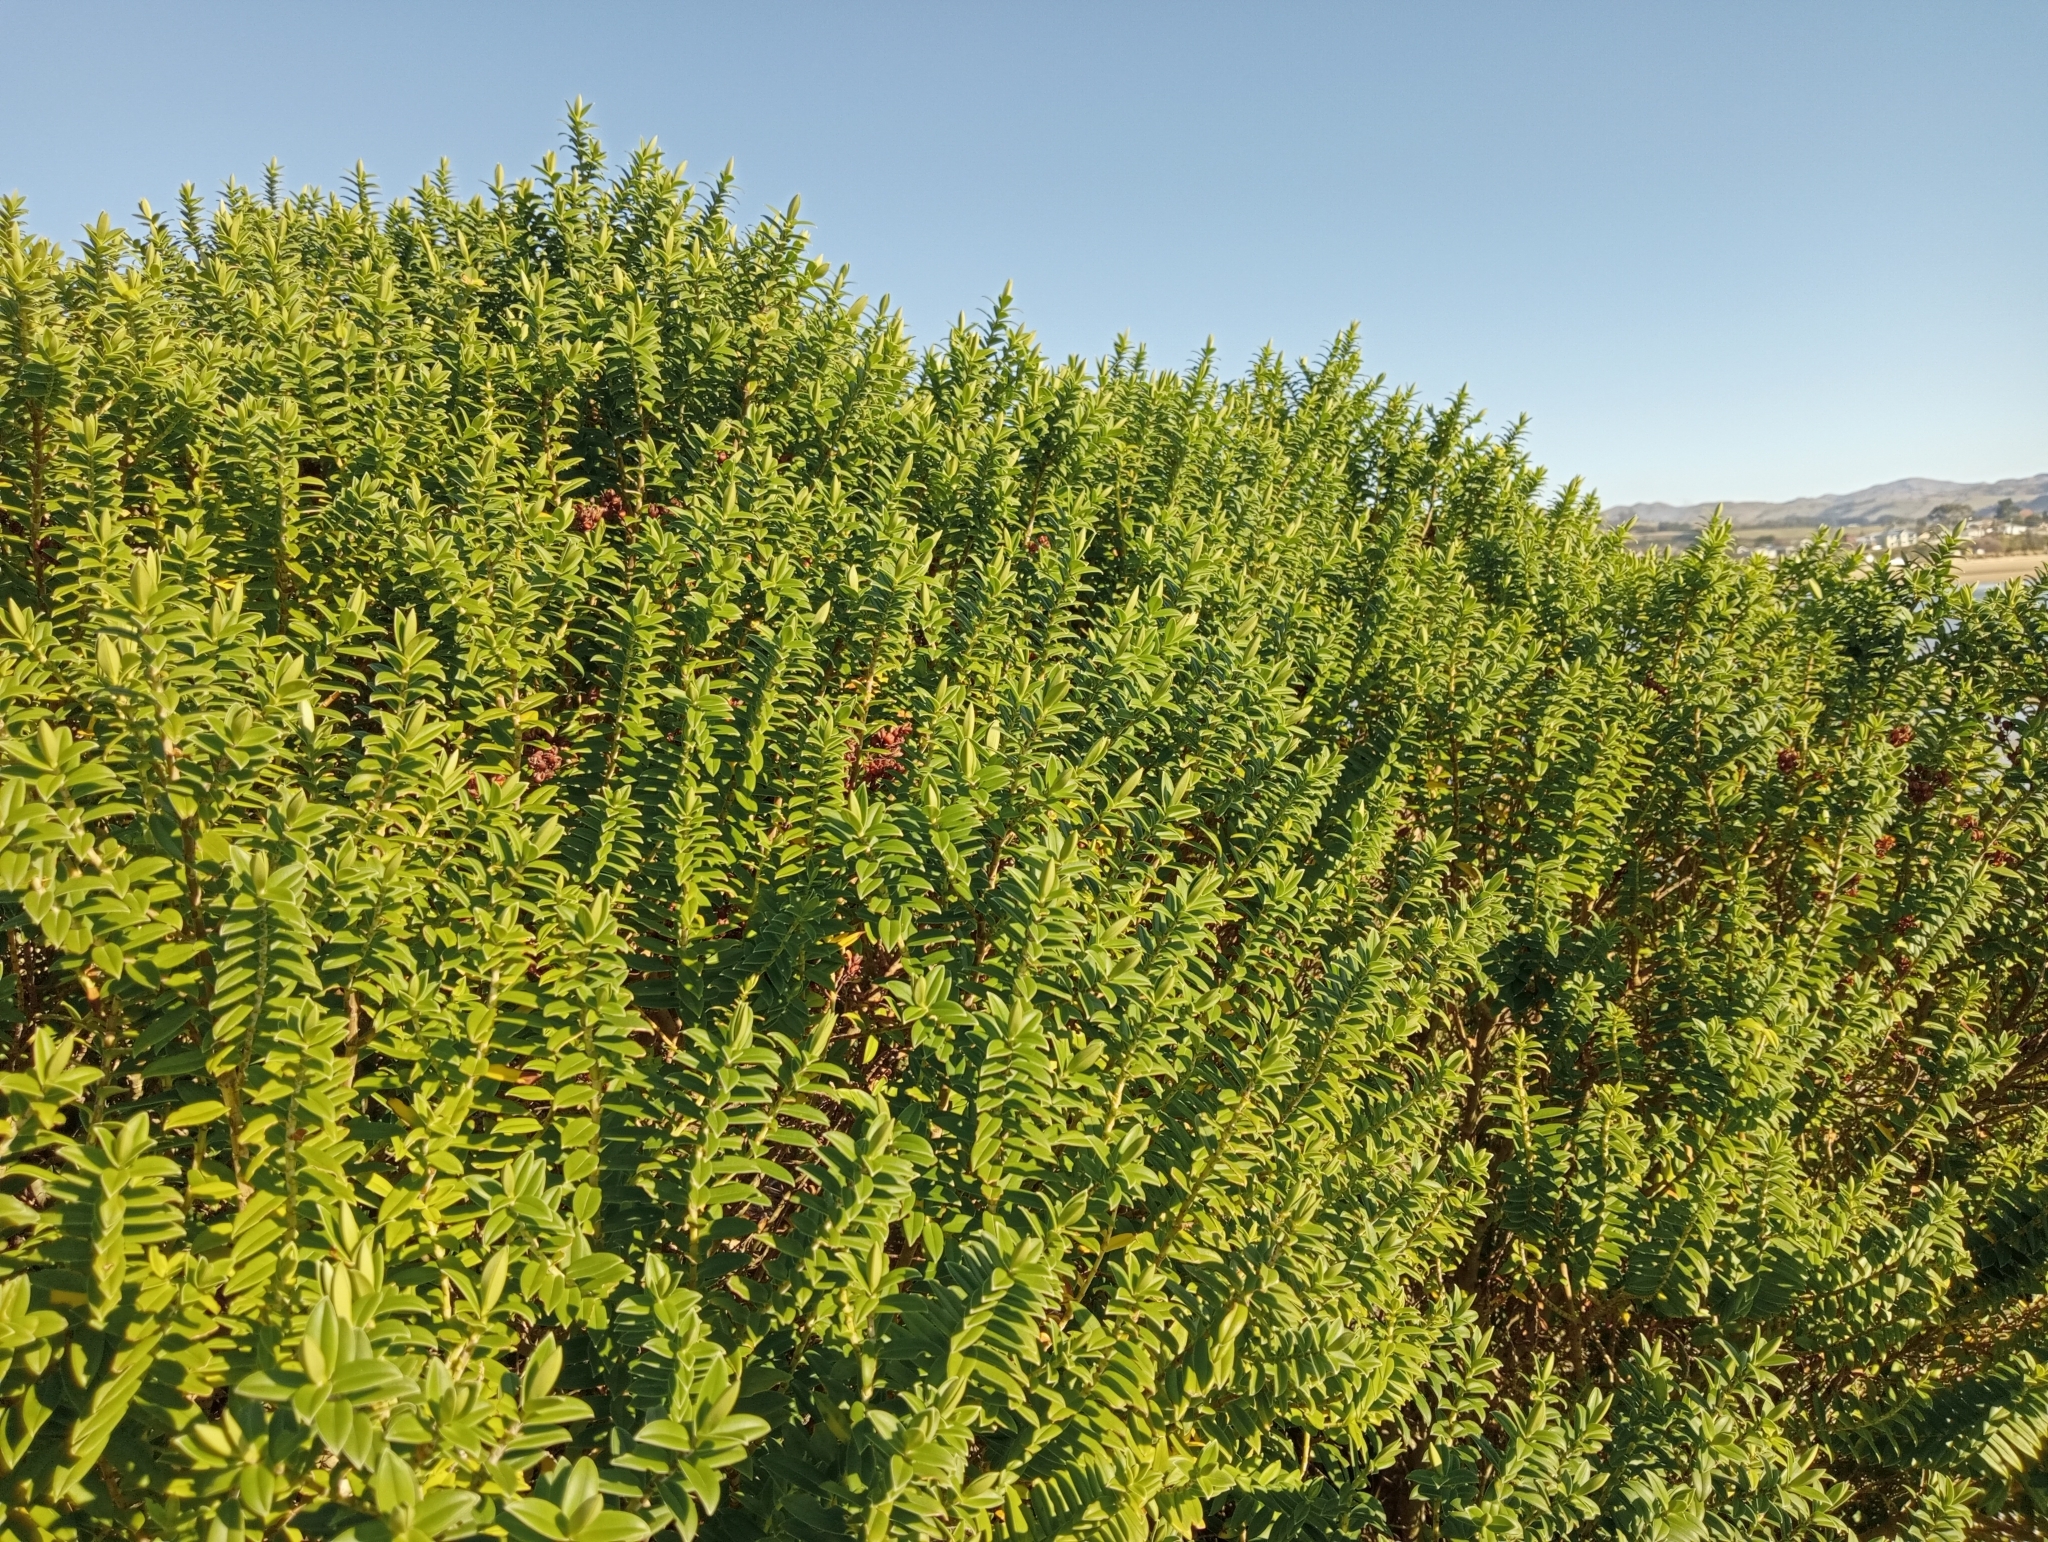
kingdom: Plantae
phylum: Tracheophyta
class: Magnoliopsida
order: Lamiales
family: Plantaginaceae
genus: Veronica
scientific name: Veronica elliptica
